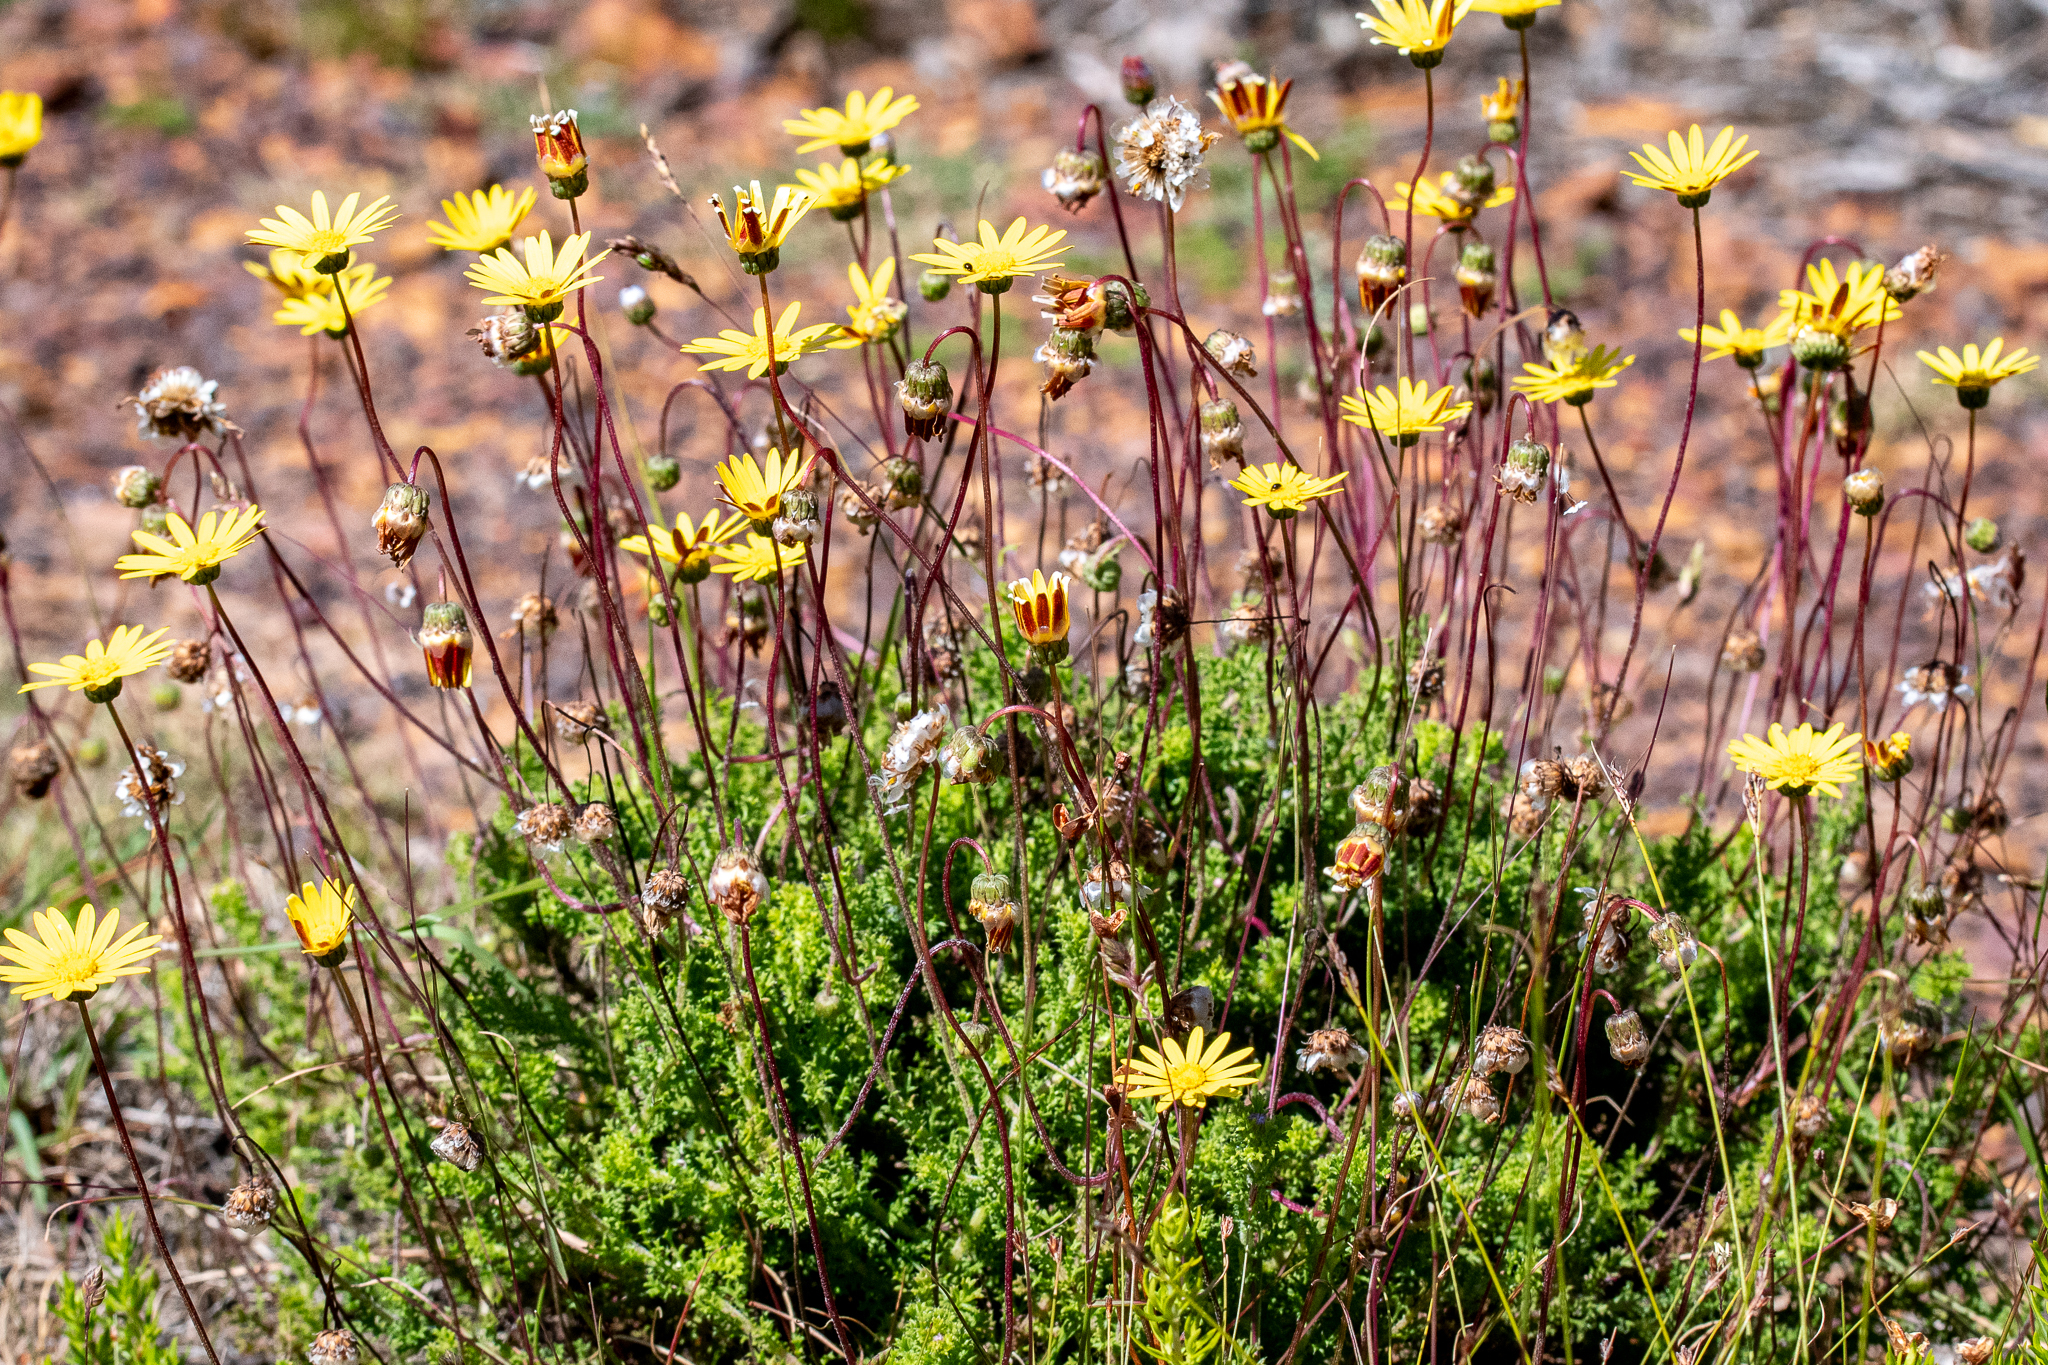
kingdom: Plantae
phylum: Tracheophyta
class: Magnoliopsida
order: Asterales
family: Asteraceae
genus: Ursinia
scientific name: Ursinia dentata
